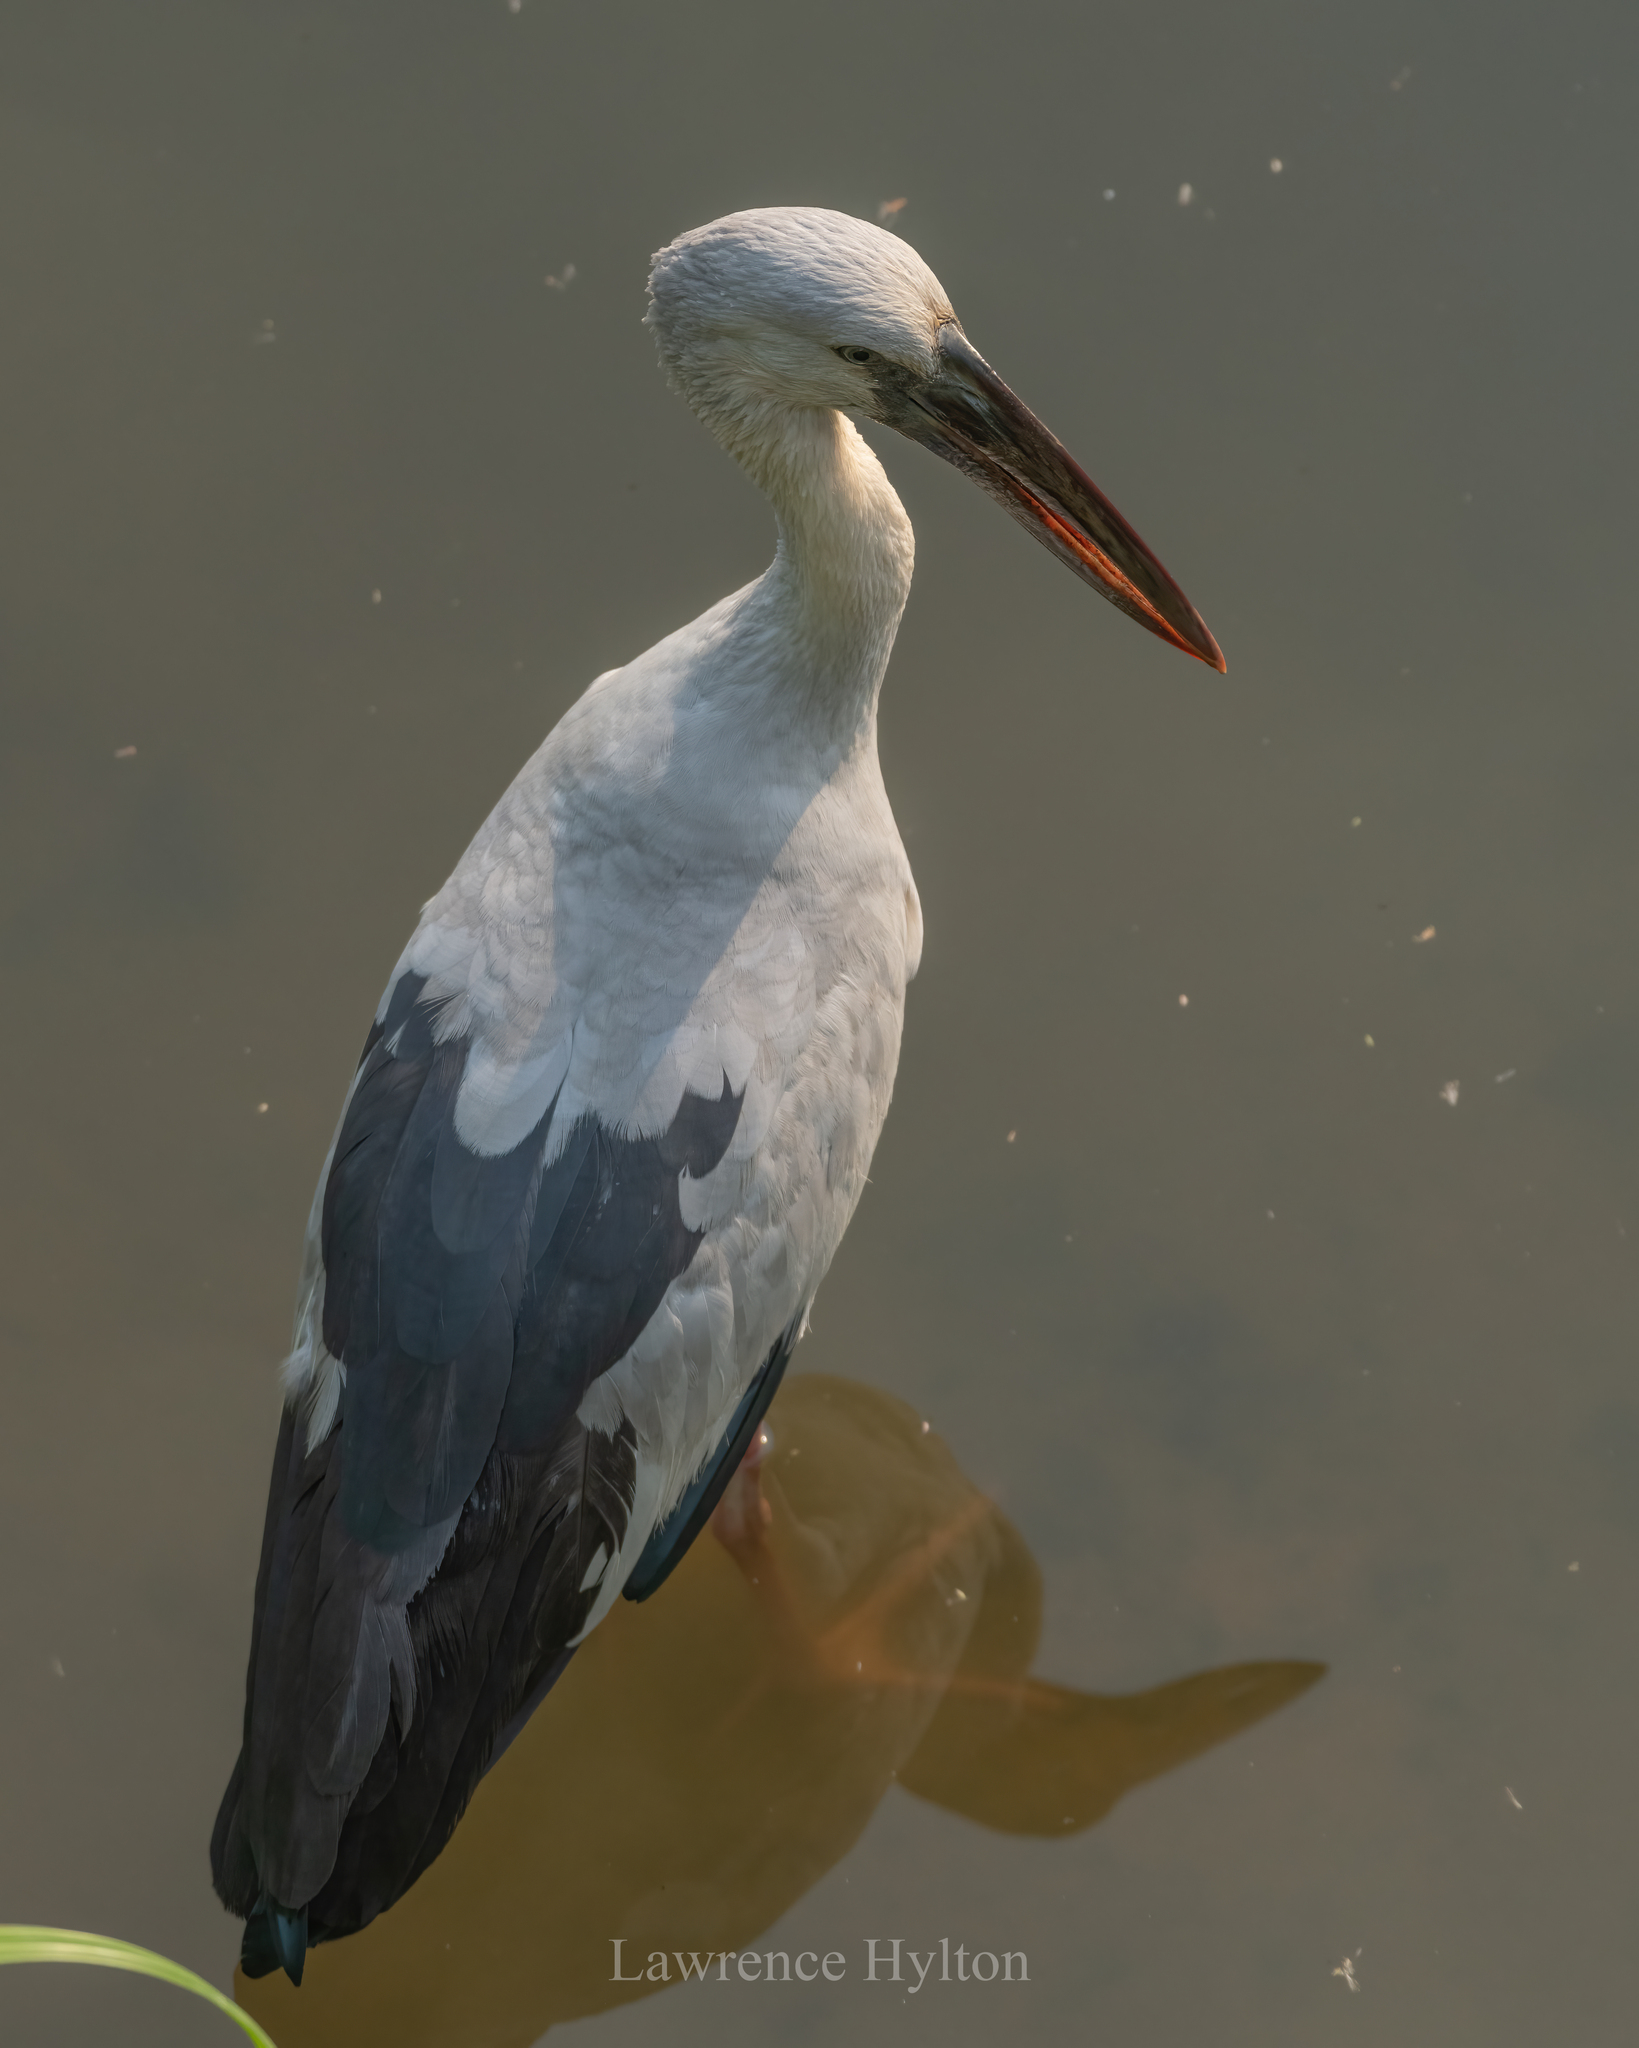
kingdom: Animalia
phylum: Chordata
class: Aves
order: Ciconiiformes
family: Ciconiidae
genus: Anastomus
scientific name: Anastomus oscitans
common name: Asian openbill
